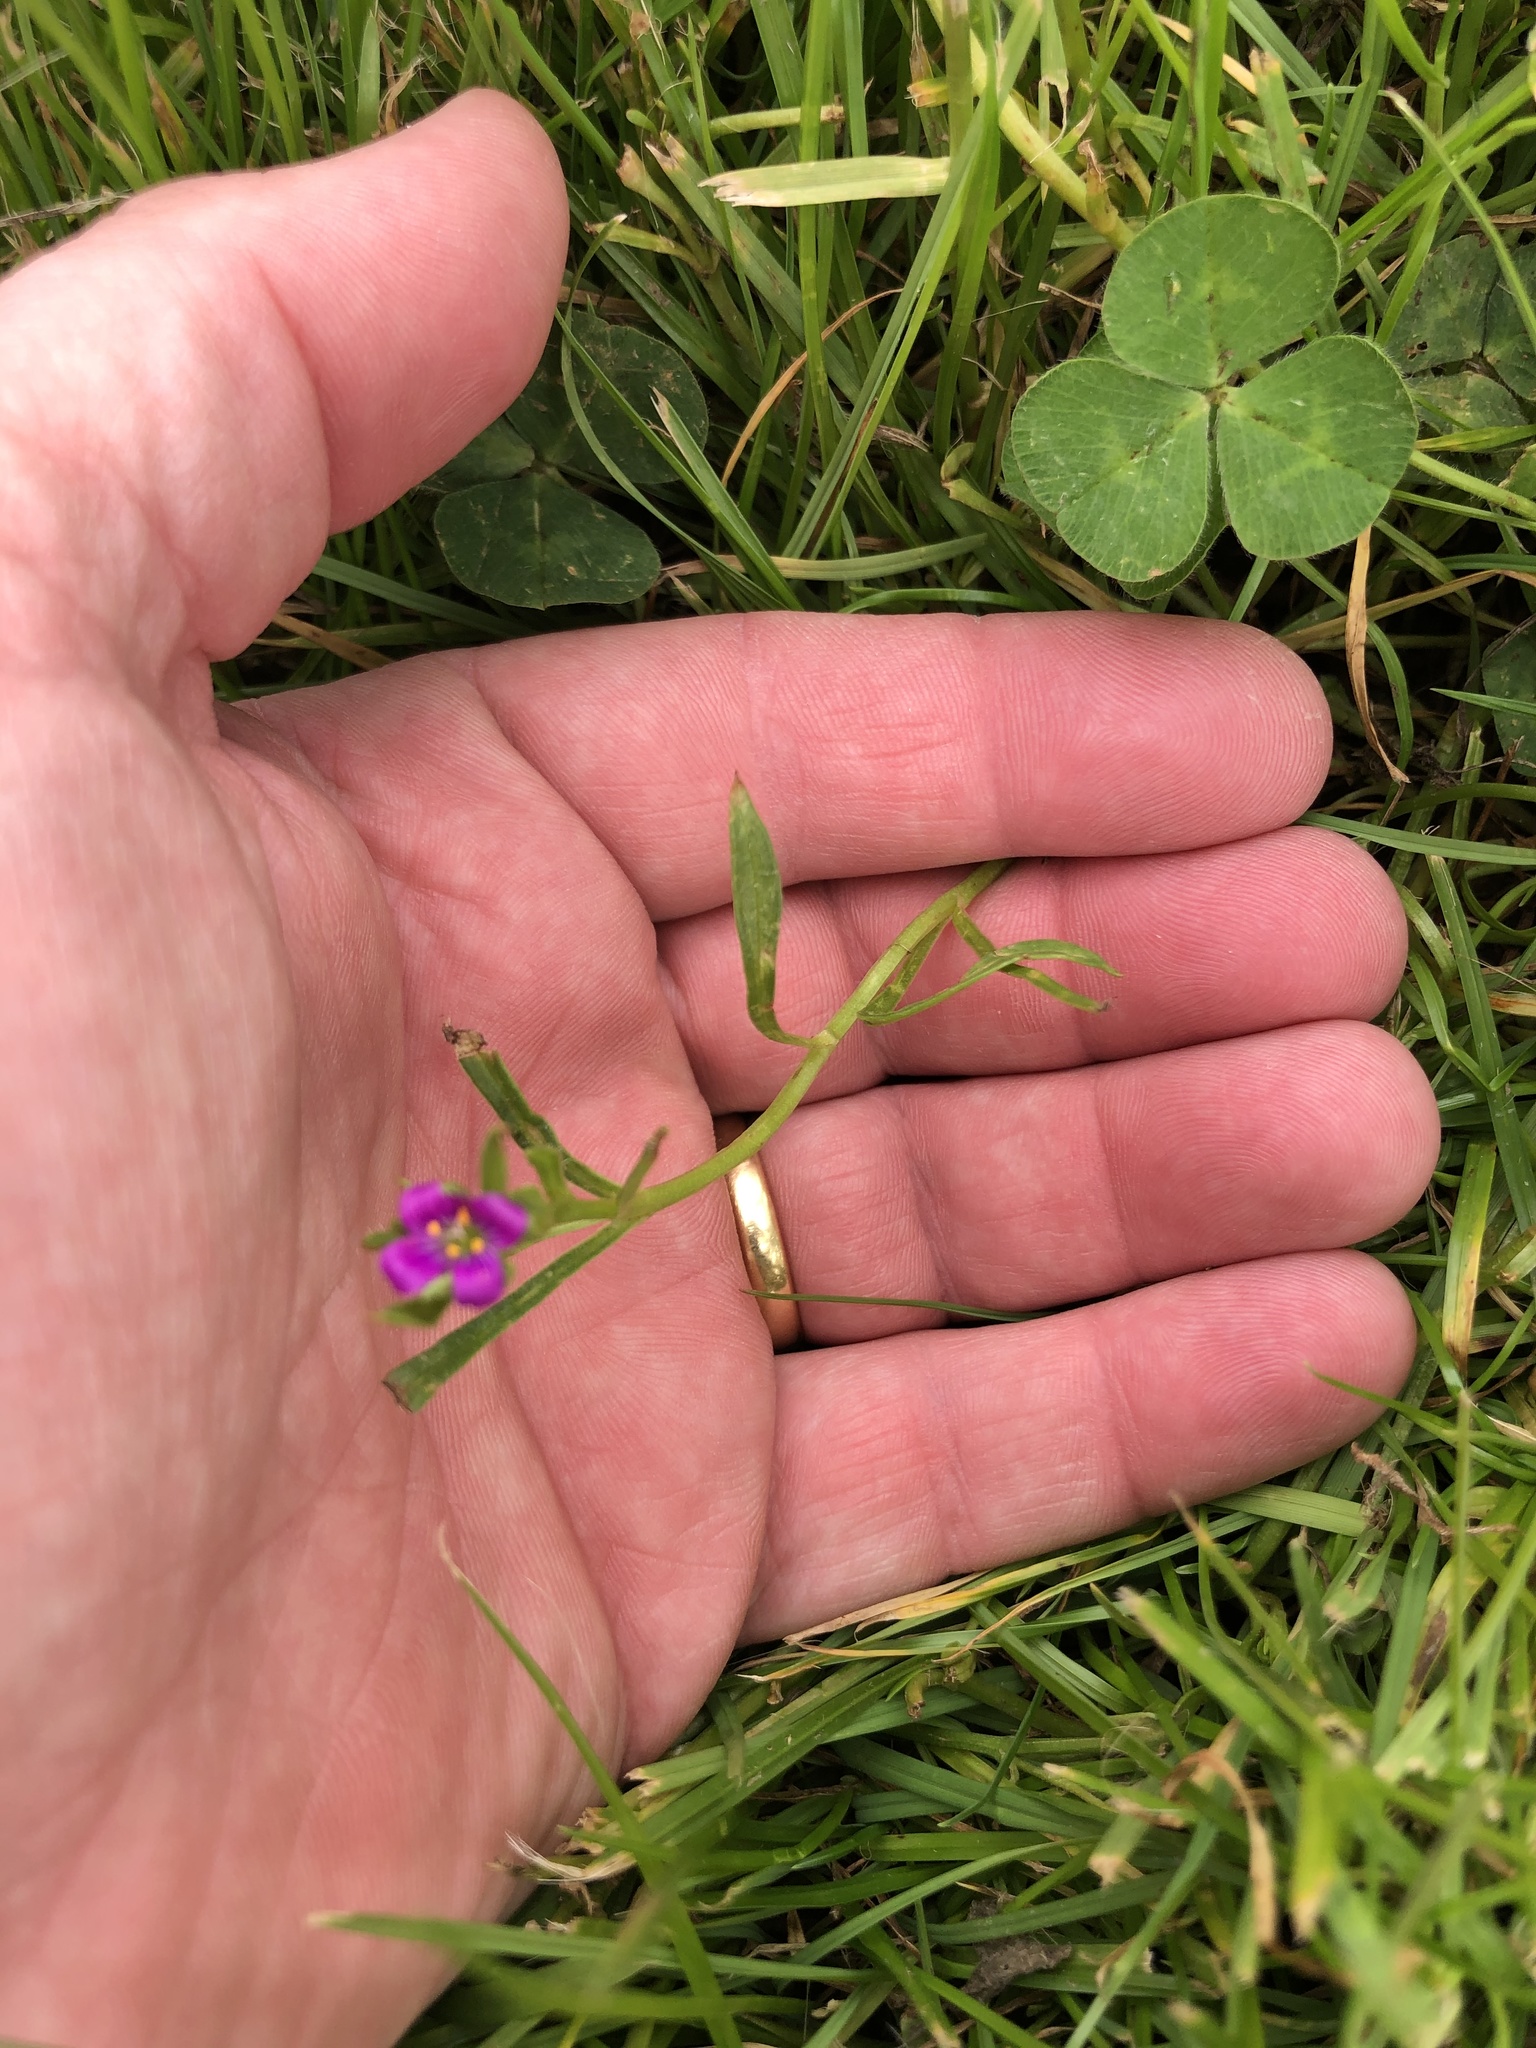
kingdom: Plantae
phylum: Tracheophyta
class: Magnoliopsida
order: Caryophyllales
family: Montiaceae
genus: Calandrinia
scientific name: Calandrinia menziesii
